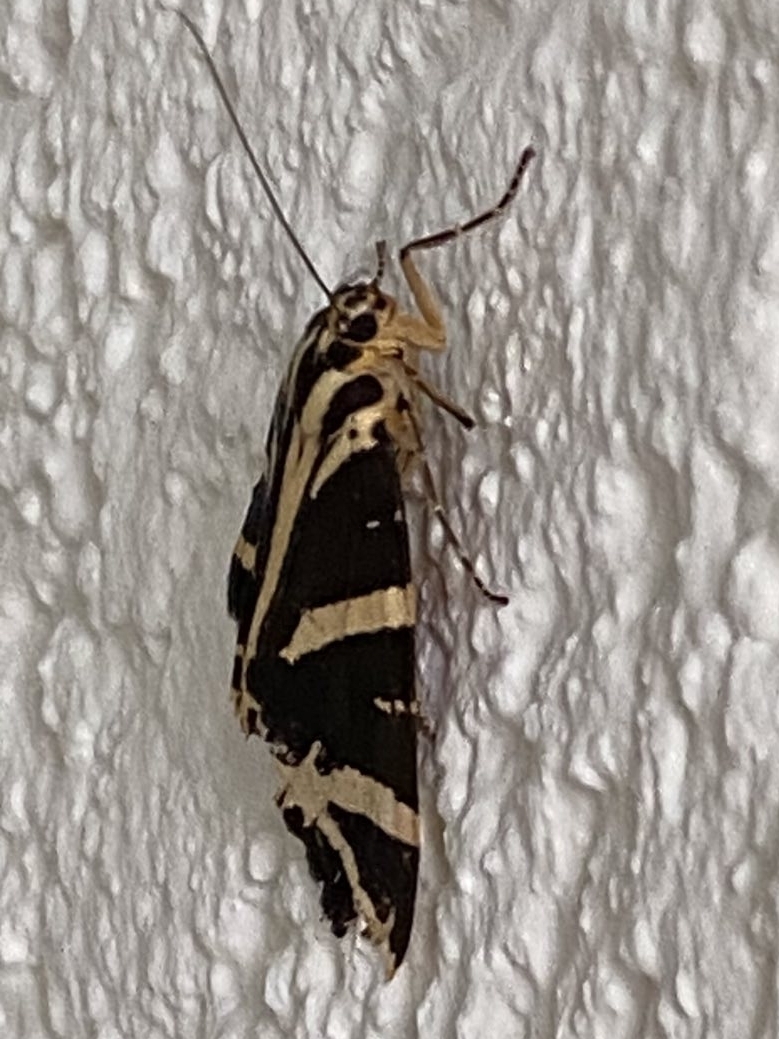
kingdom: Animalia
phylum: Arthropoda
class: Insecta
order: Lepidoptera
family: Erebidae
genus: Euplagia
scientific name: Euplagia quadripunctaria
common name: Jersey tiger
